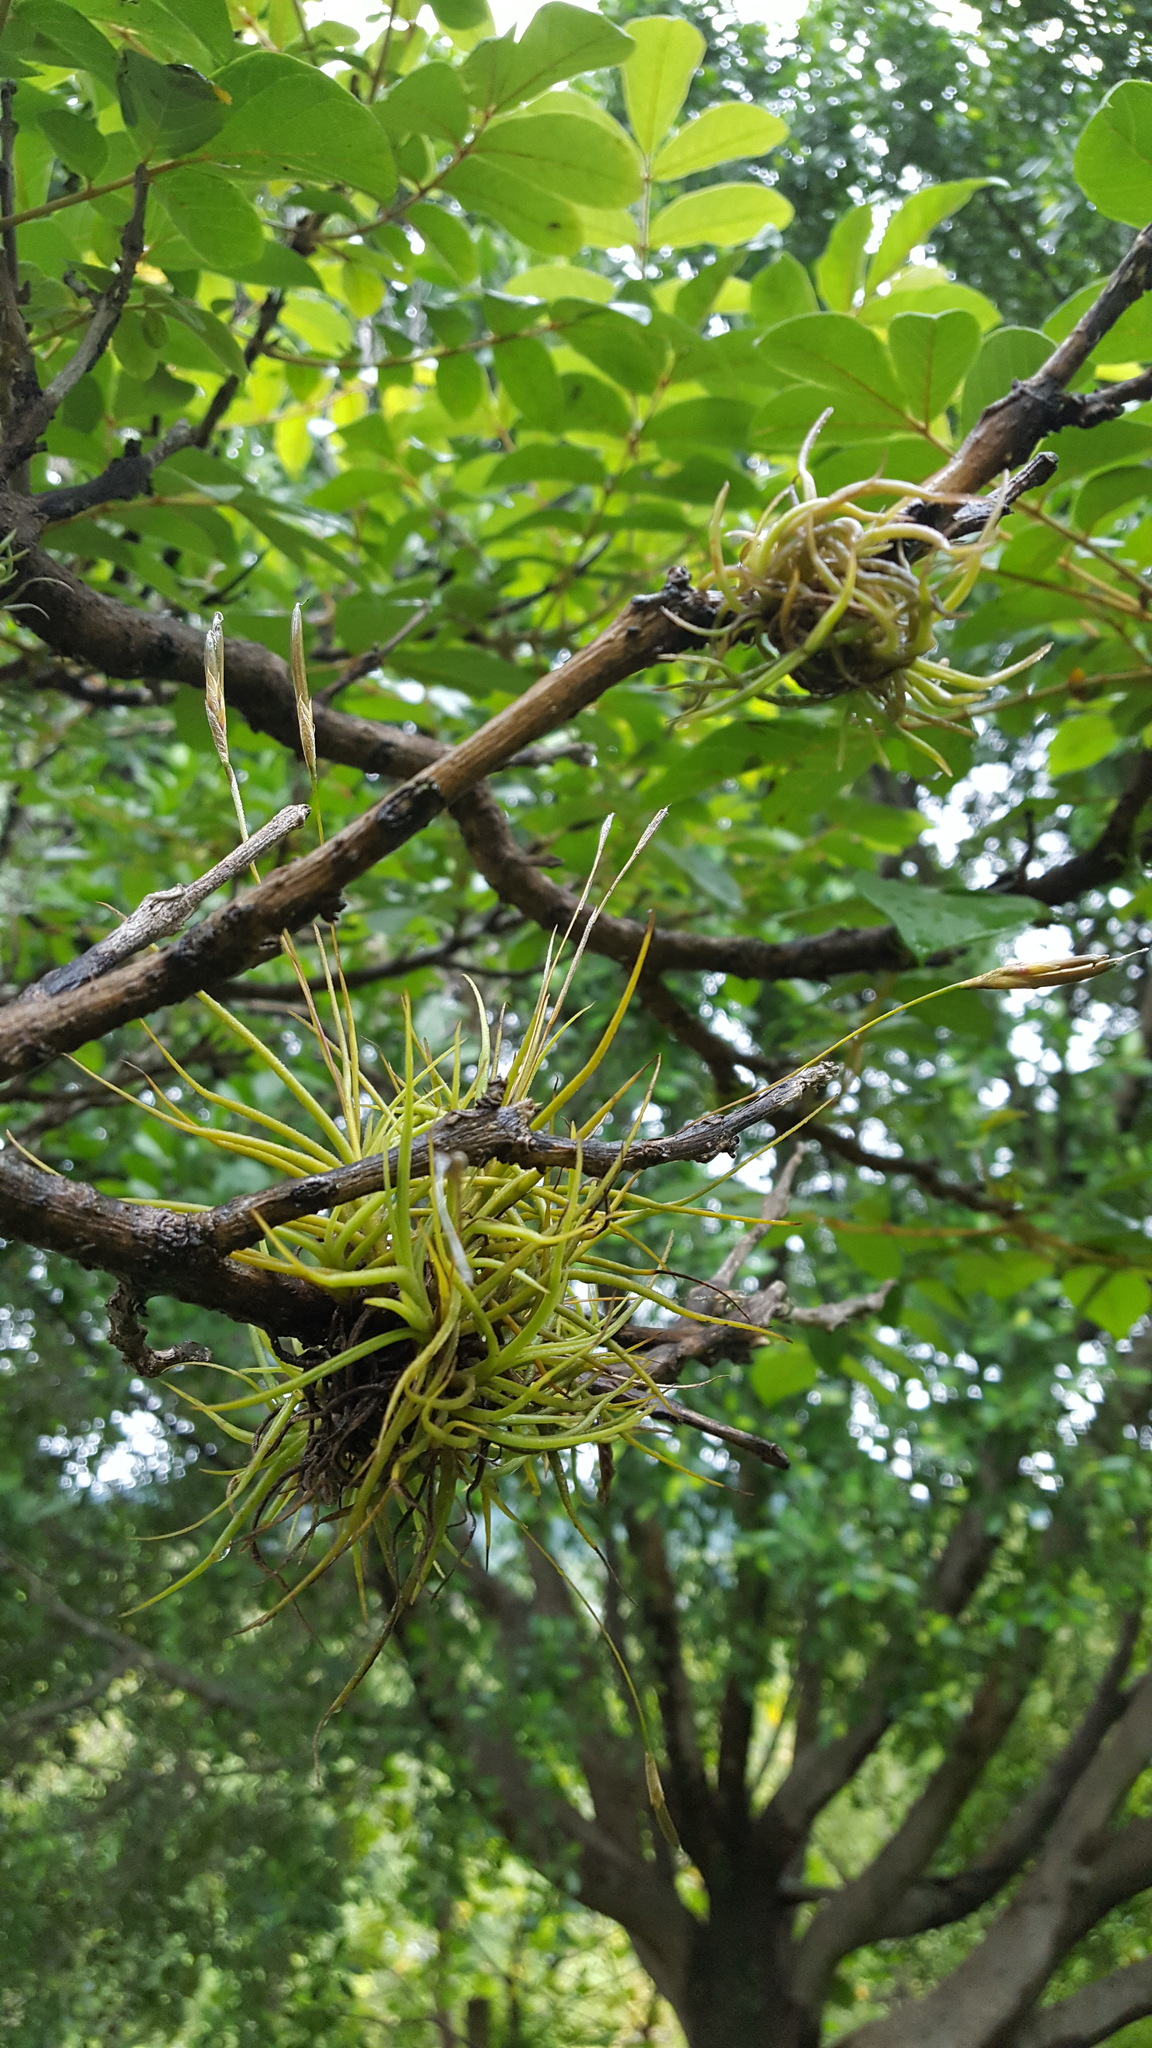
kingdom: Plantae
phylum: Tracheophyta
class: Liliopsida
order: Poales
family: Bromeliaceae
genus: Tillandsia
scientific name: Tillandsia recurvata
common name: Small ballmoss
